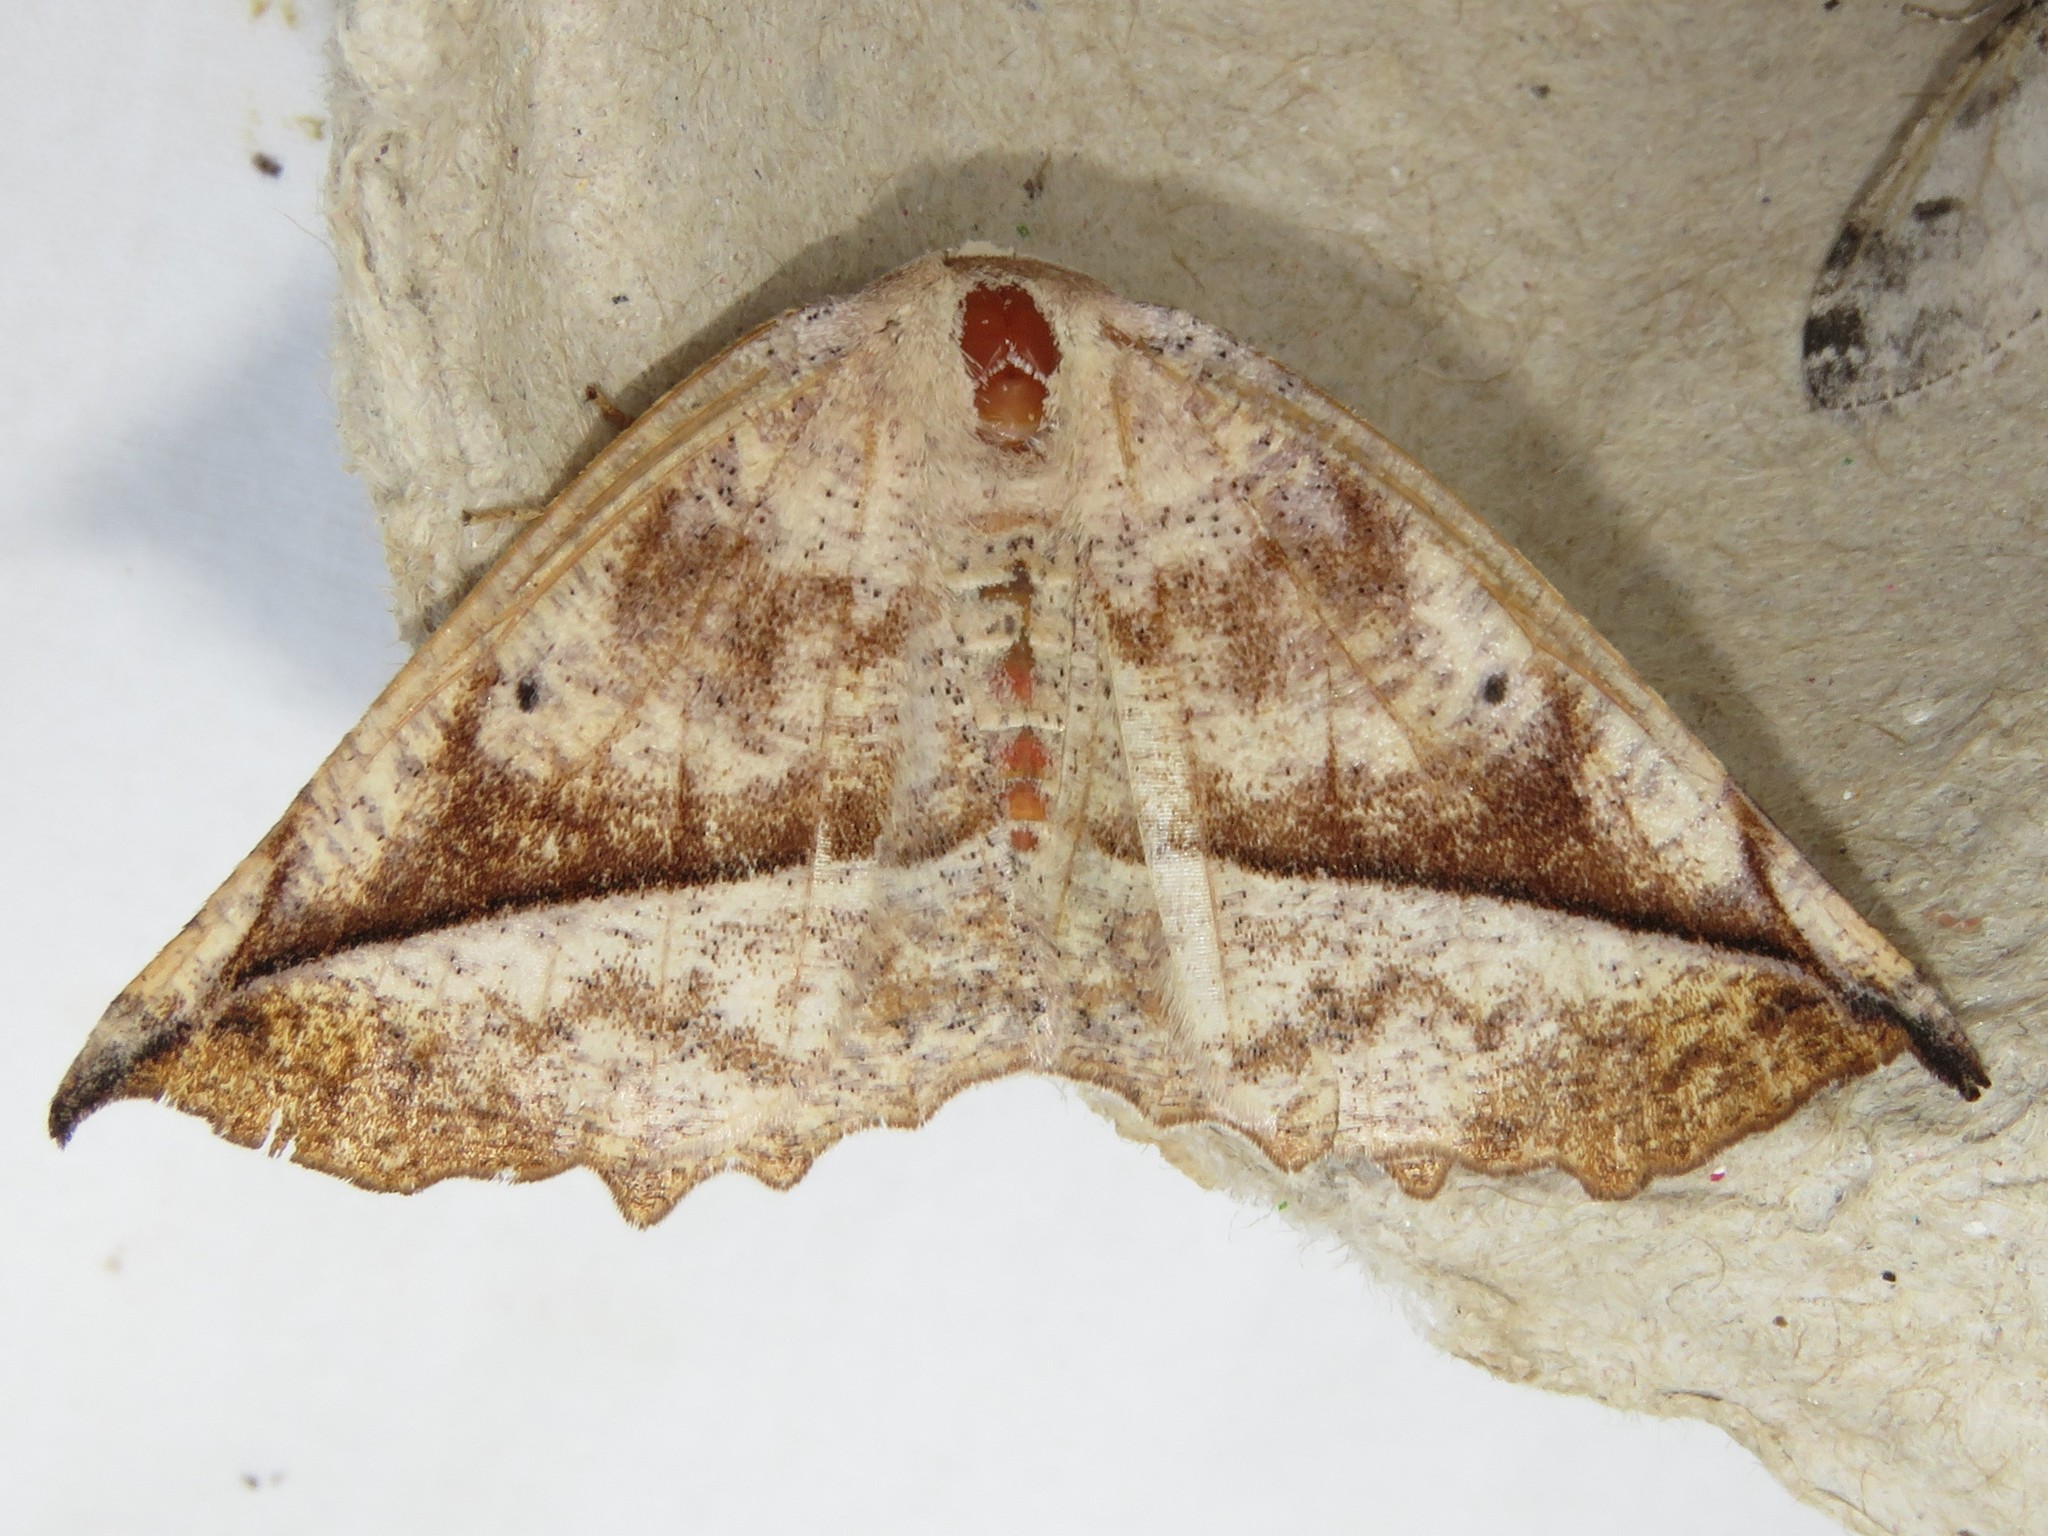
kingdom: Animalia
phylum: Arthropoda
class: Insecta
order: Lepidoptera
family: Geometridae
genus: Eutrapela
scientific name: Eutrapela clemataria
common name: Curved-toothed geometer
